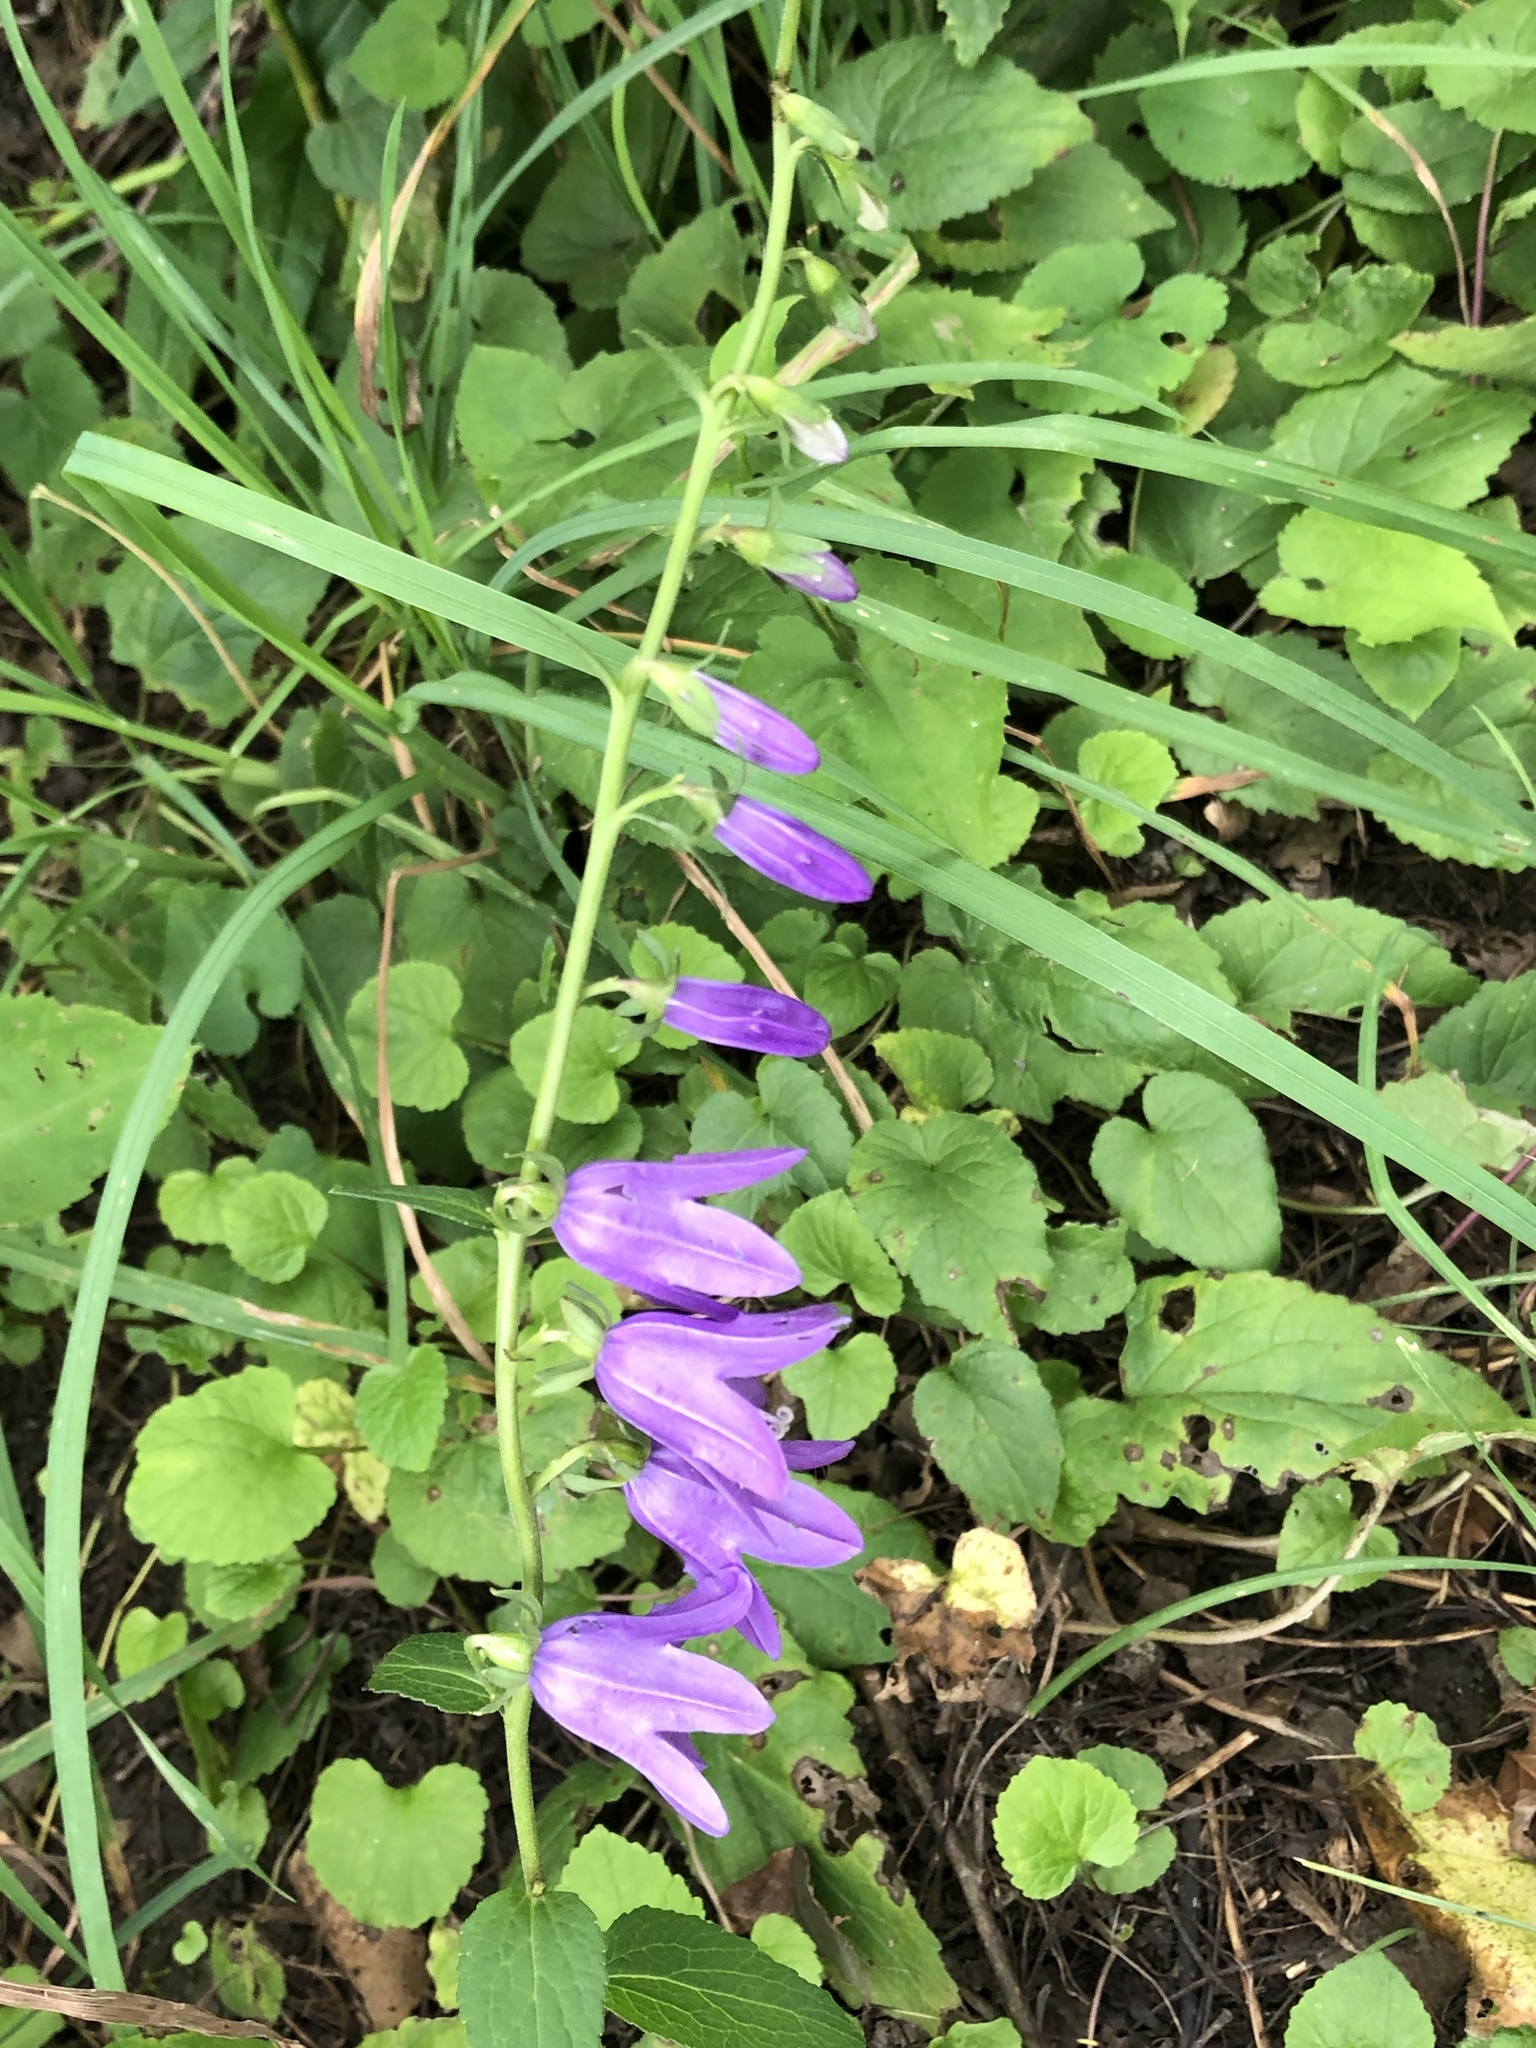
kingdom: Plantae
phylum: Tracheophyta
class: Magnoliopsida
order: Asterales
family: Campanulaceae
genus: Campanula
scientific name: Campanula rapunculoides
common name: Creeping bellflower
